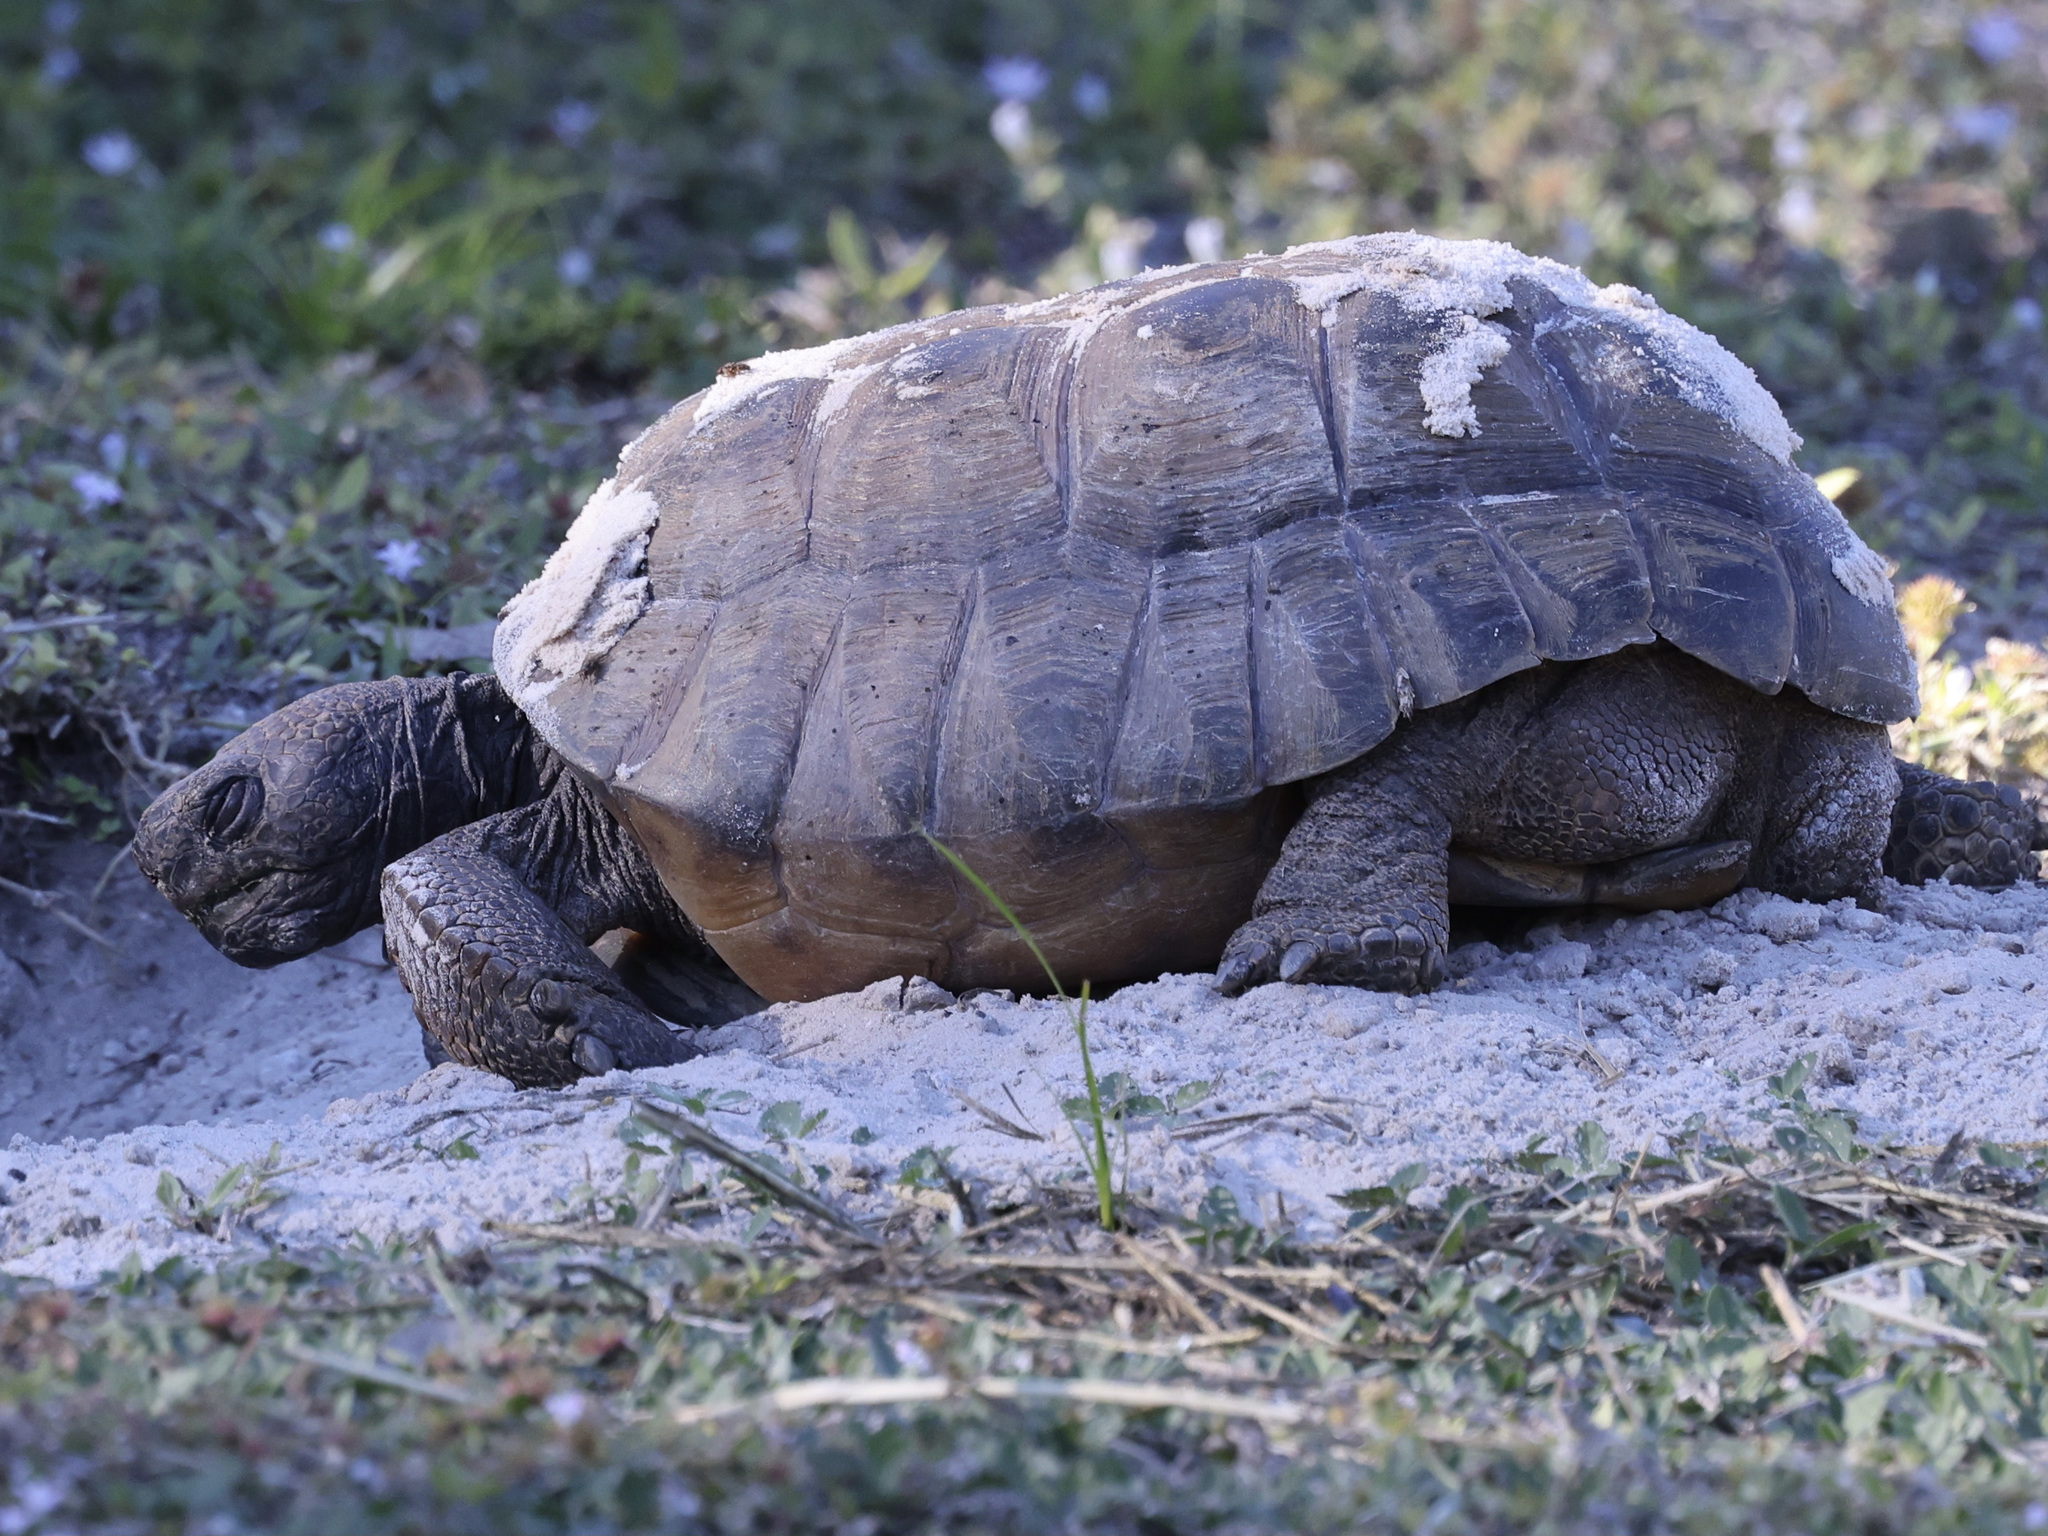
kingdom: Animalia
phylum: Chordata
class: Testudines
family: Testudinidae
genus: Gopherus
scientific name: Gopherus polyphemus
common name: Florida gopher tortoise
